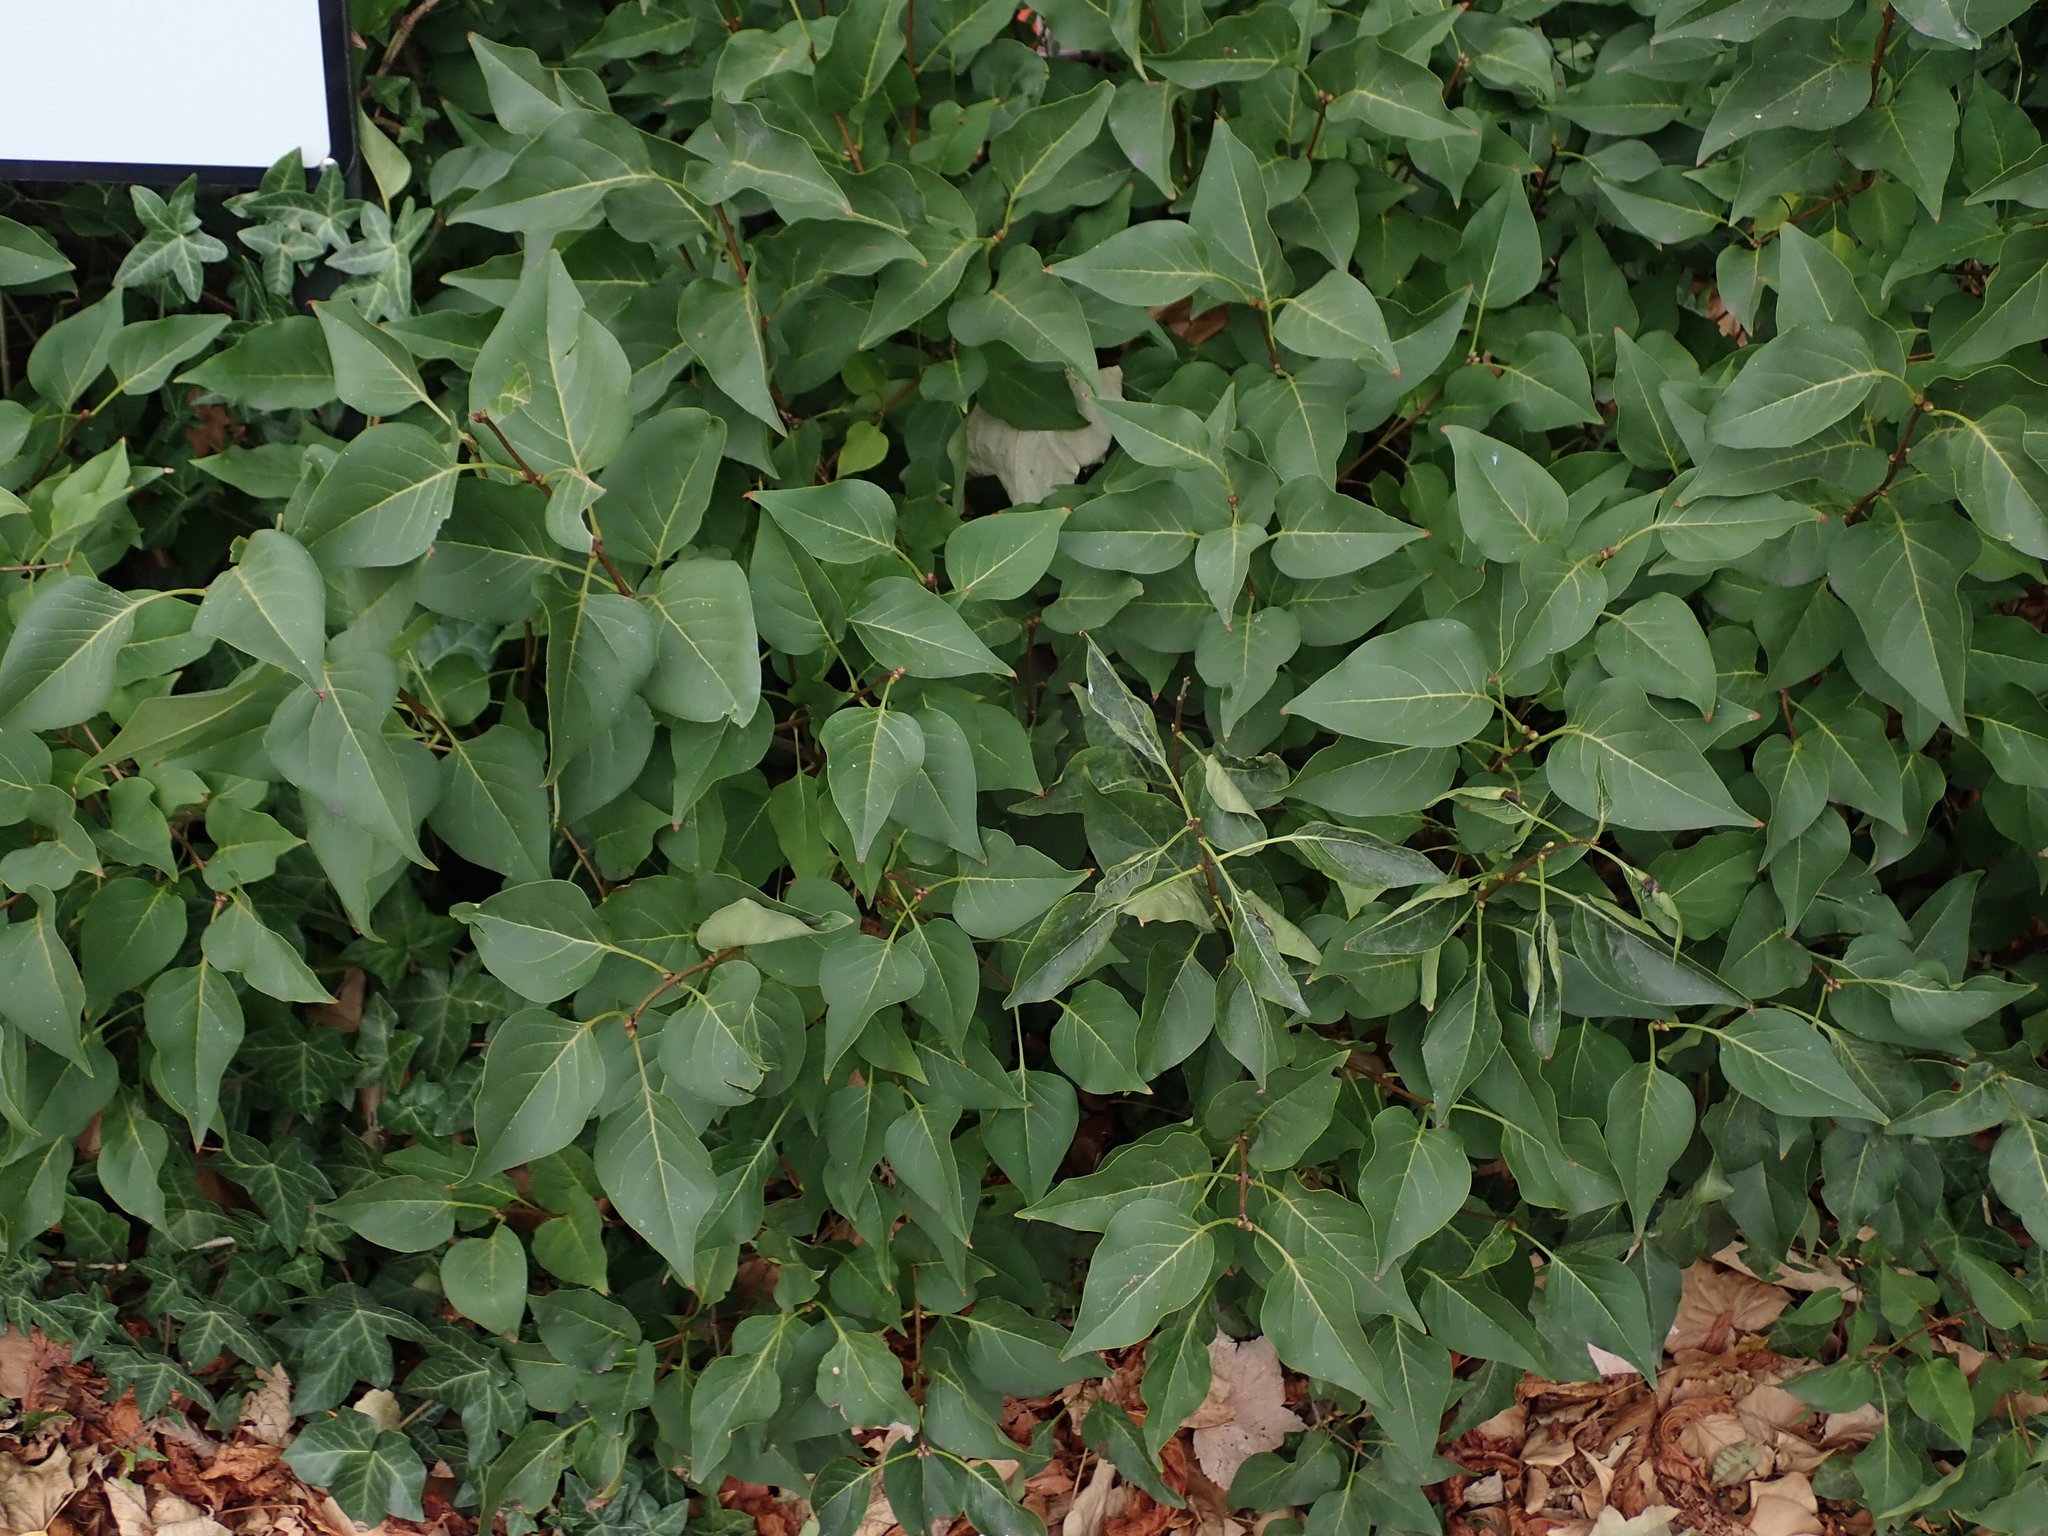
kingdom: Plantae
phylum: Tracheophyta
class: Magnoliopsida
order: Lamiales
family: Oleaceae
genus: Syringa
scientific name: Syringa vulgaris
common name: Common lilac
